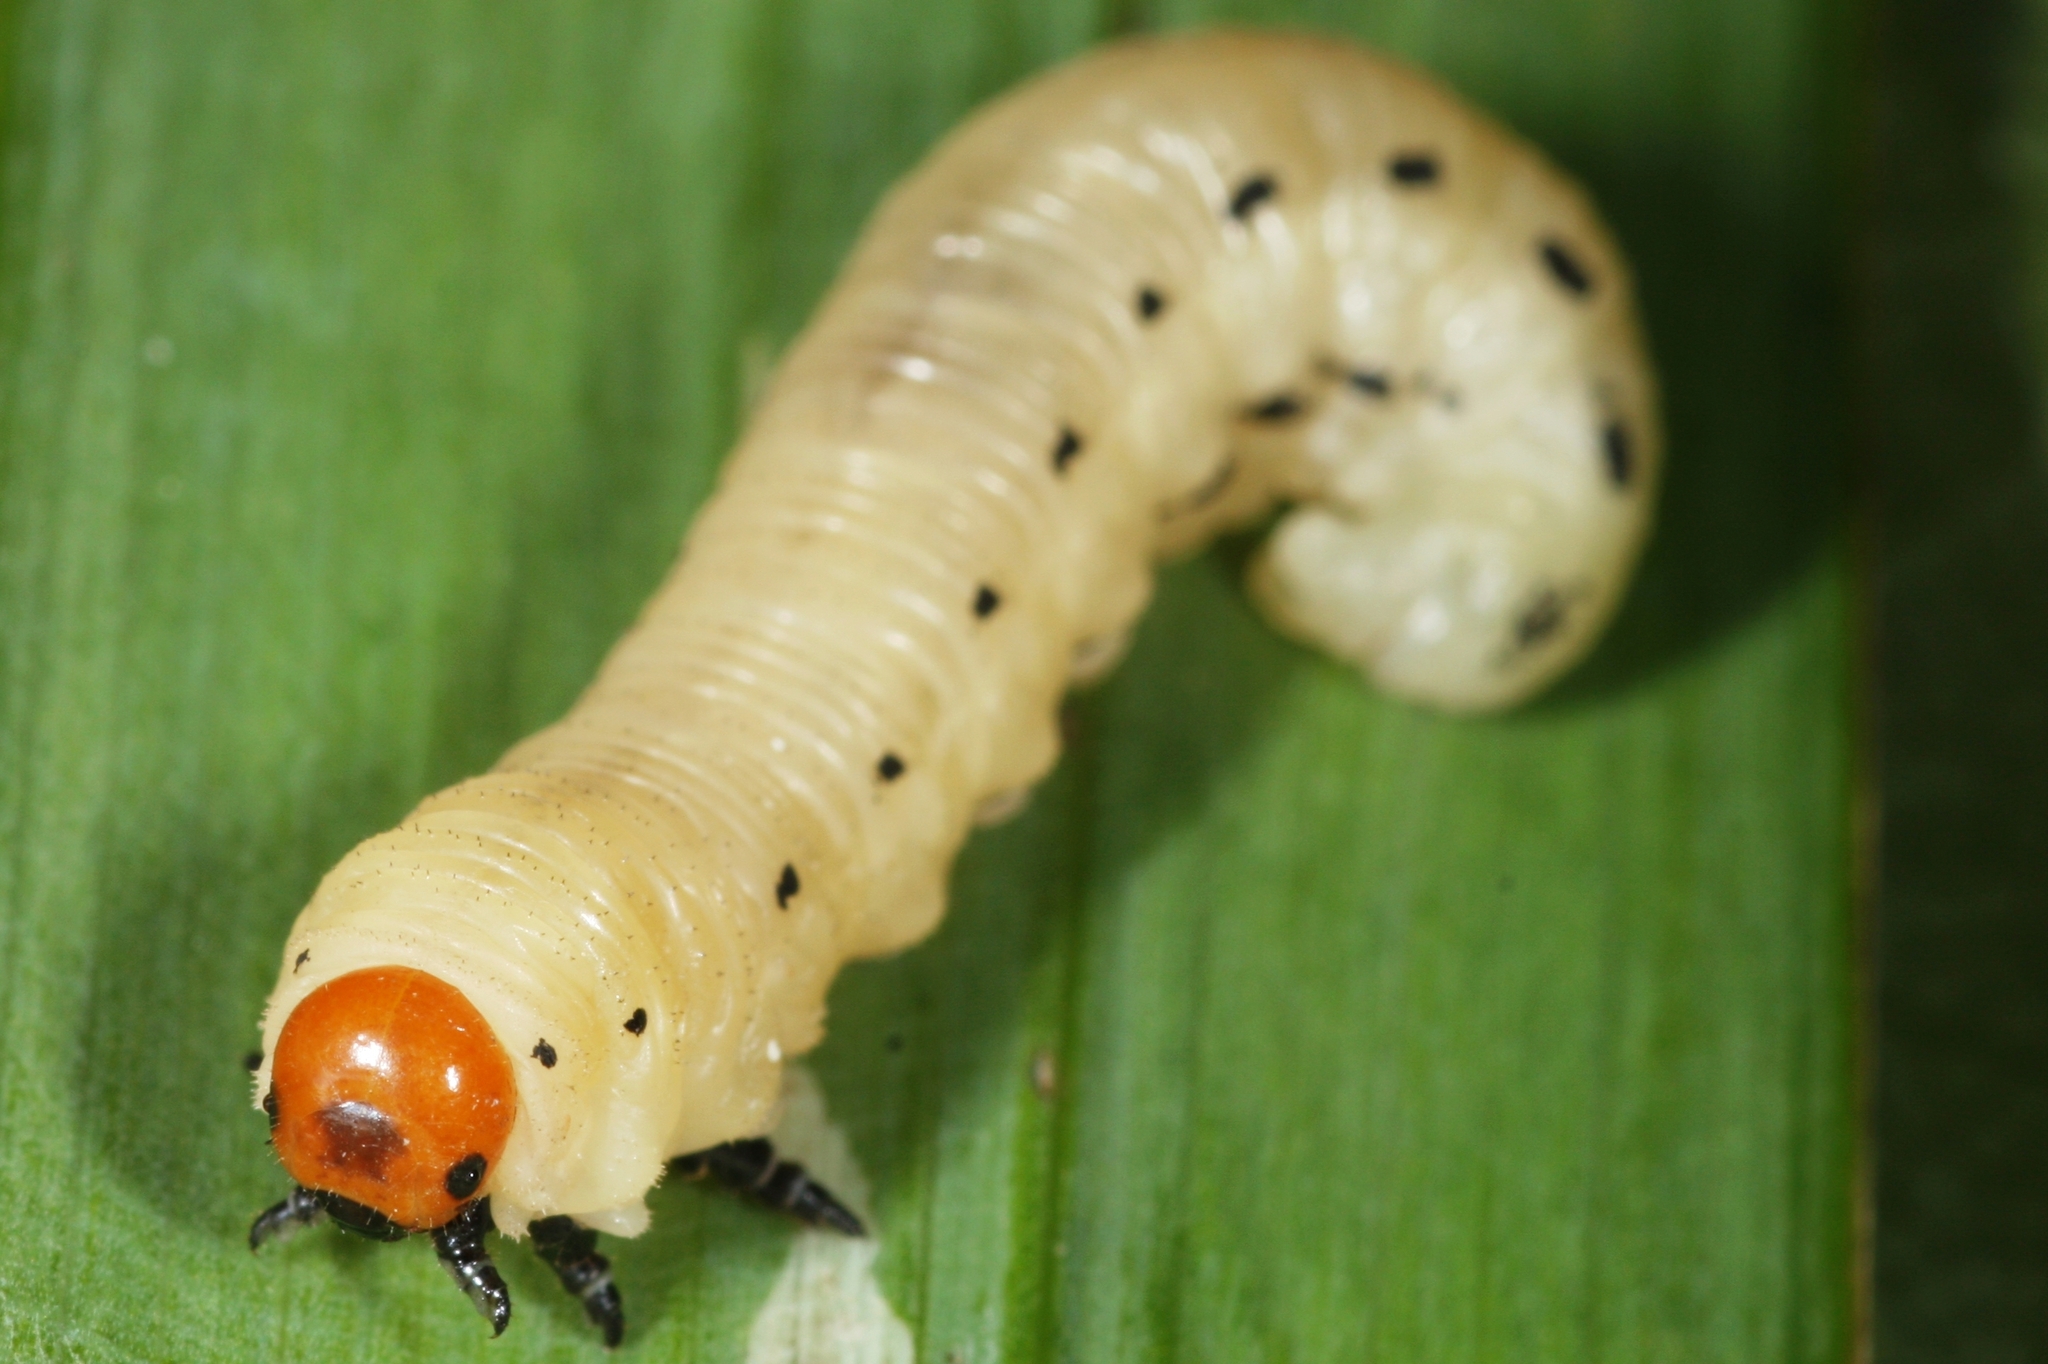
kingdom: Animalia
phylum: Arthropoda
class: Insecta
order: Hymenoptera
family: Diprionidae
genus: Diprion
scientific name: Diprion pini
